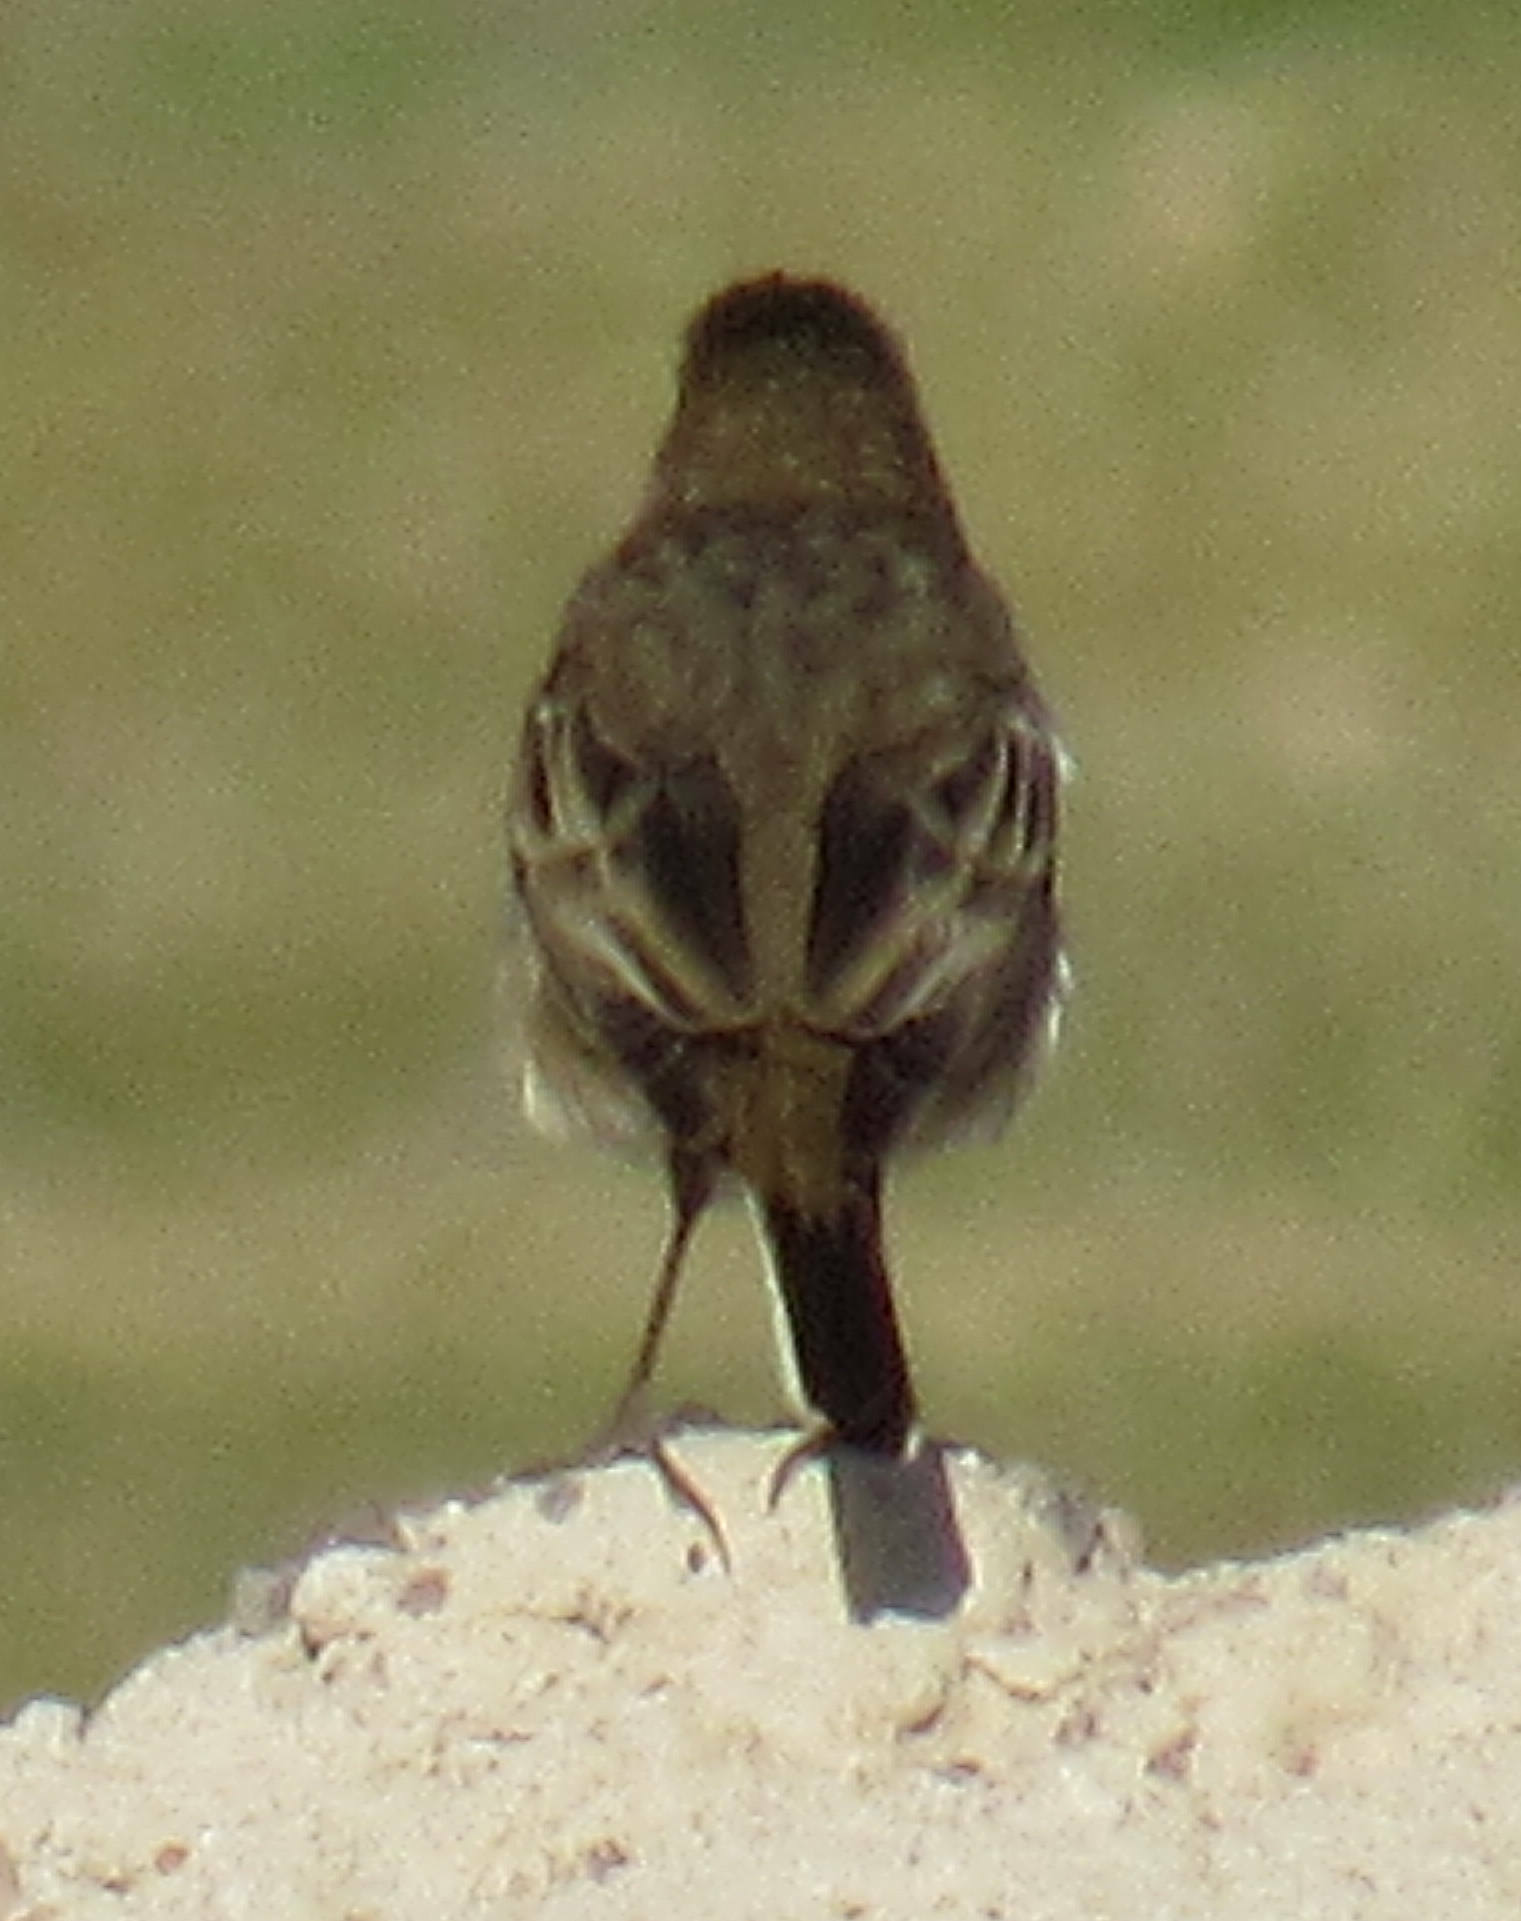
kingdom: Animalia
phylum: Chordata
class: Aves
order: Passeriformes
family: Motacillidae
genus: Anthus
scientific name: Anthus rubescens
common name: Buff-bellied pipit
